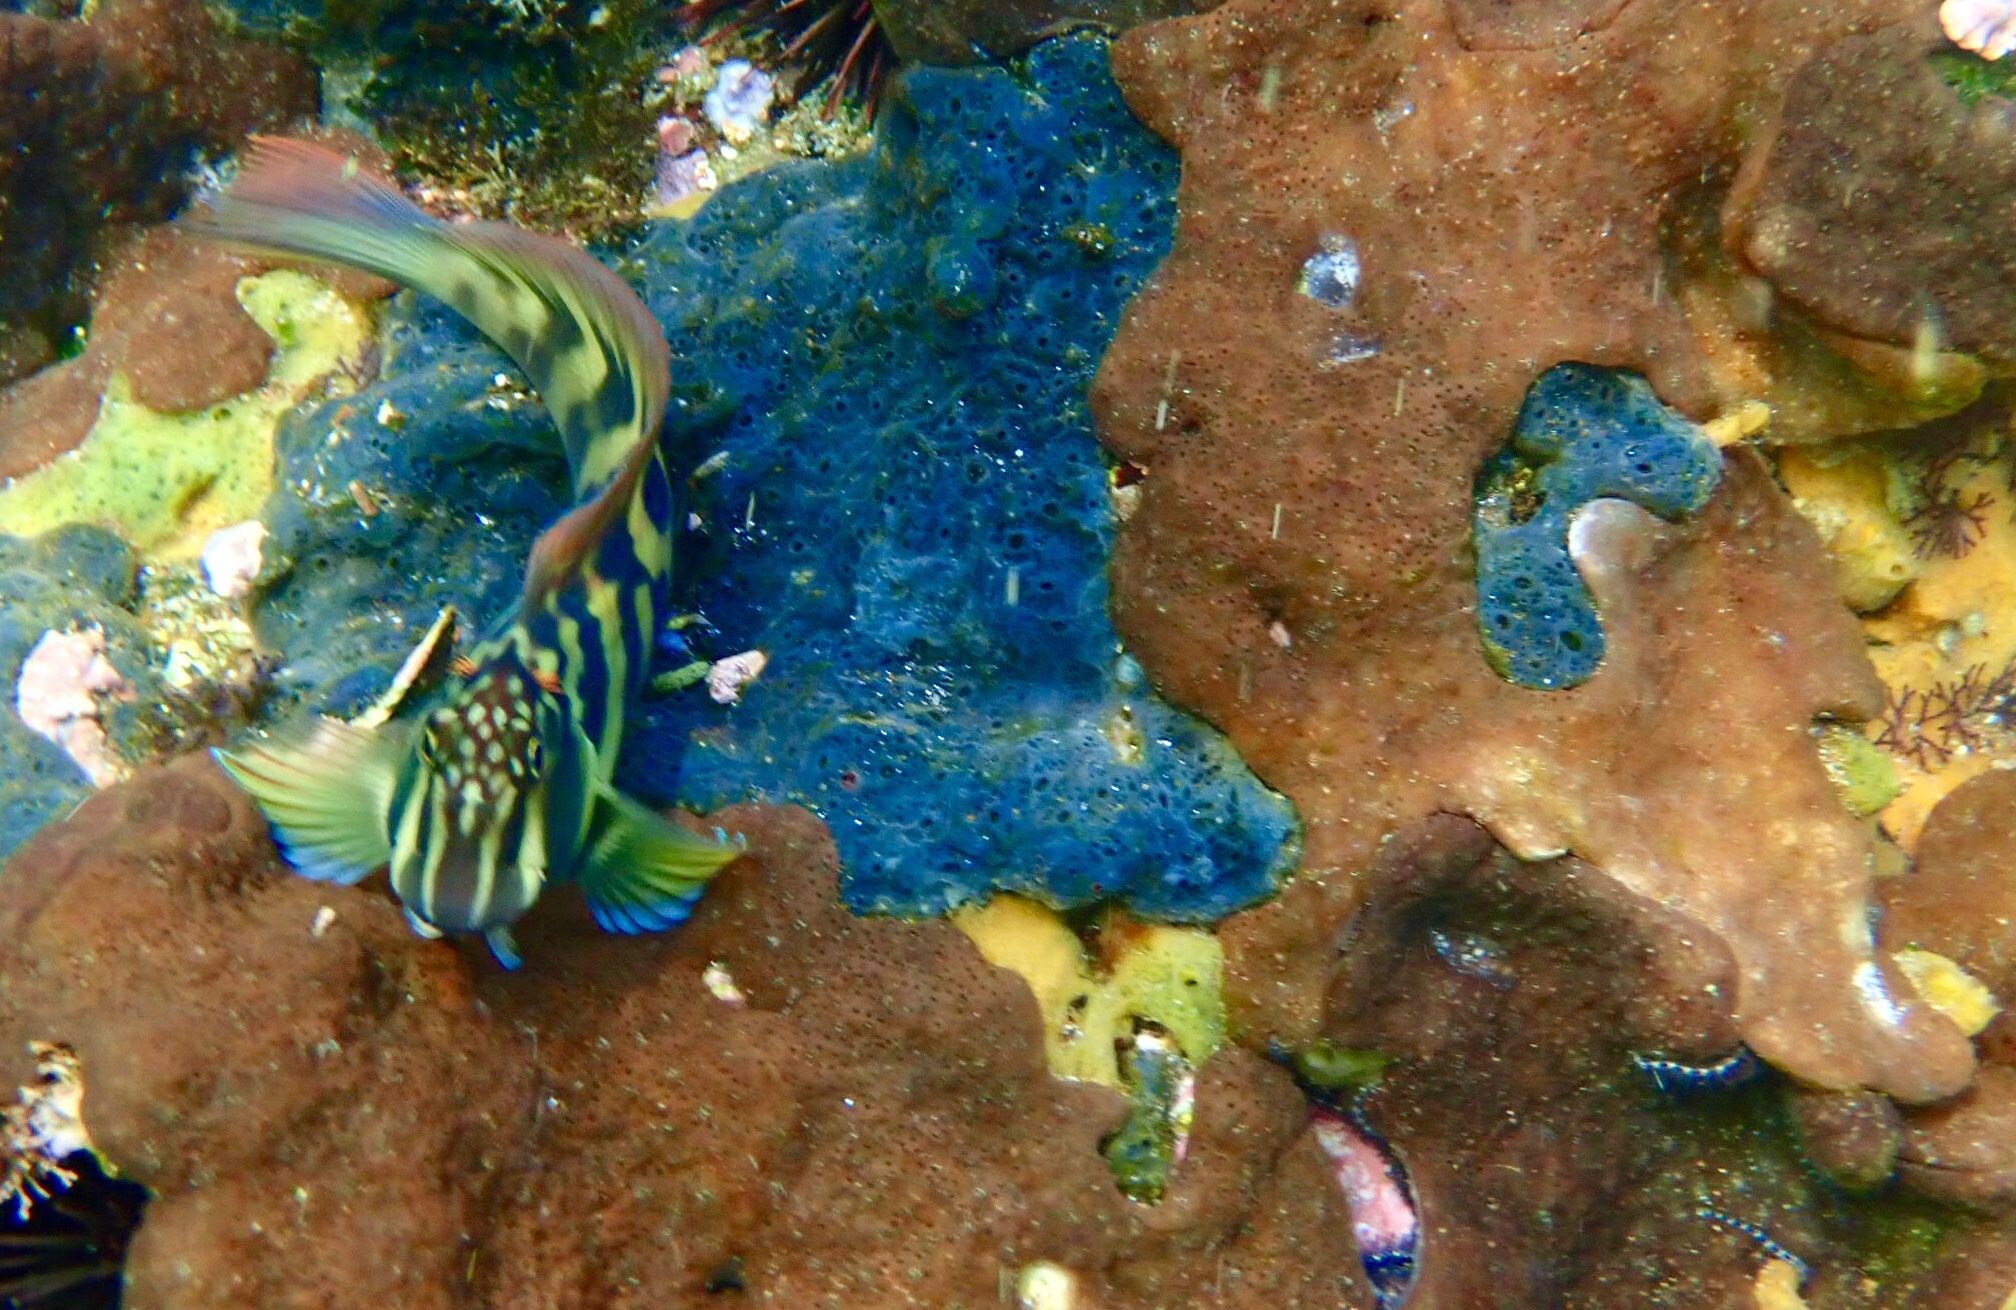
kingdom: Animalia
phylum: Chordata
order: Perciformes
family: Blenniidae
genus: Ophioblennius
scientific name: Ophioblennius steindachneri
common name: Panamic fanged blenny
